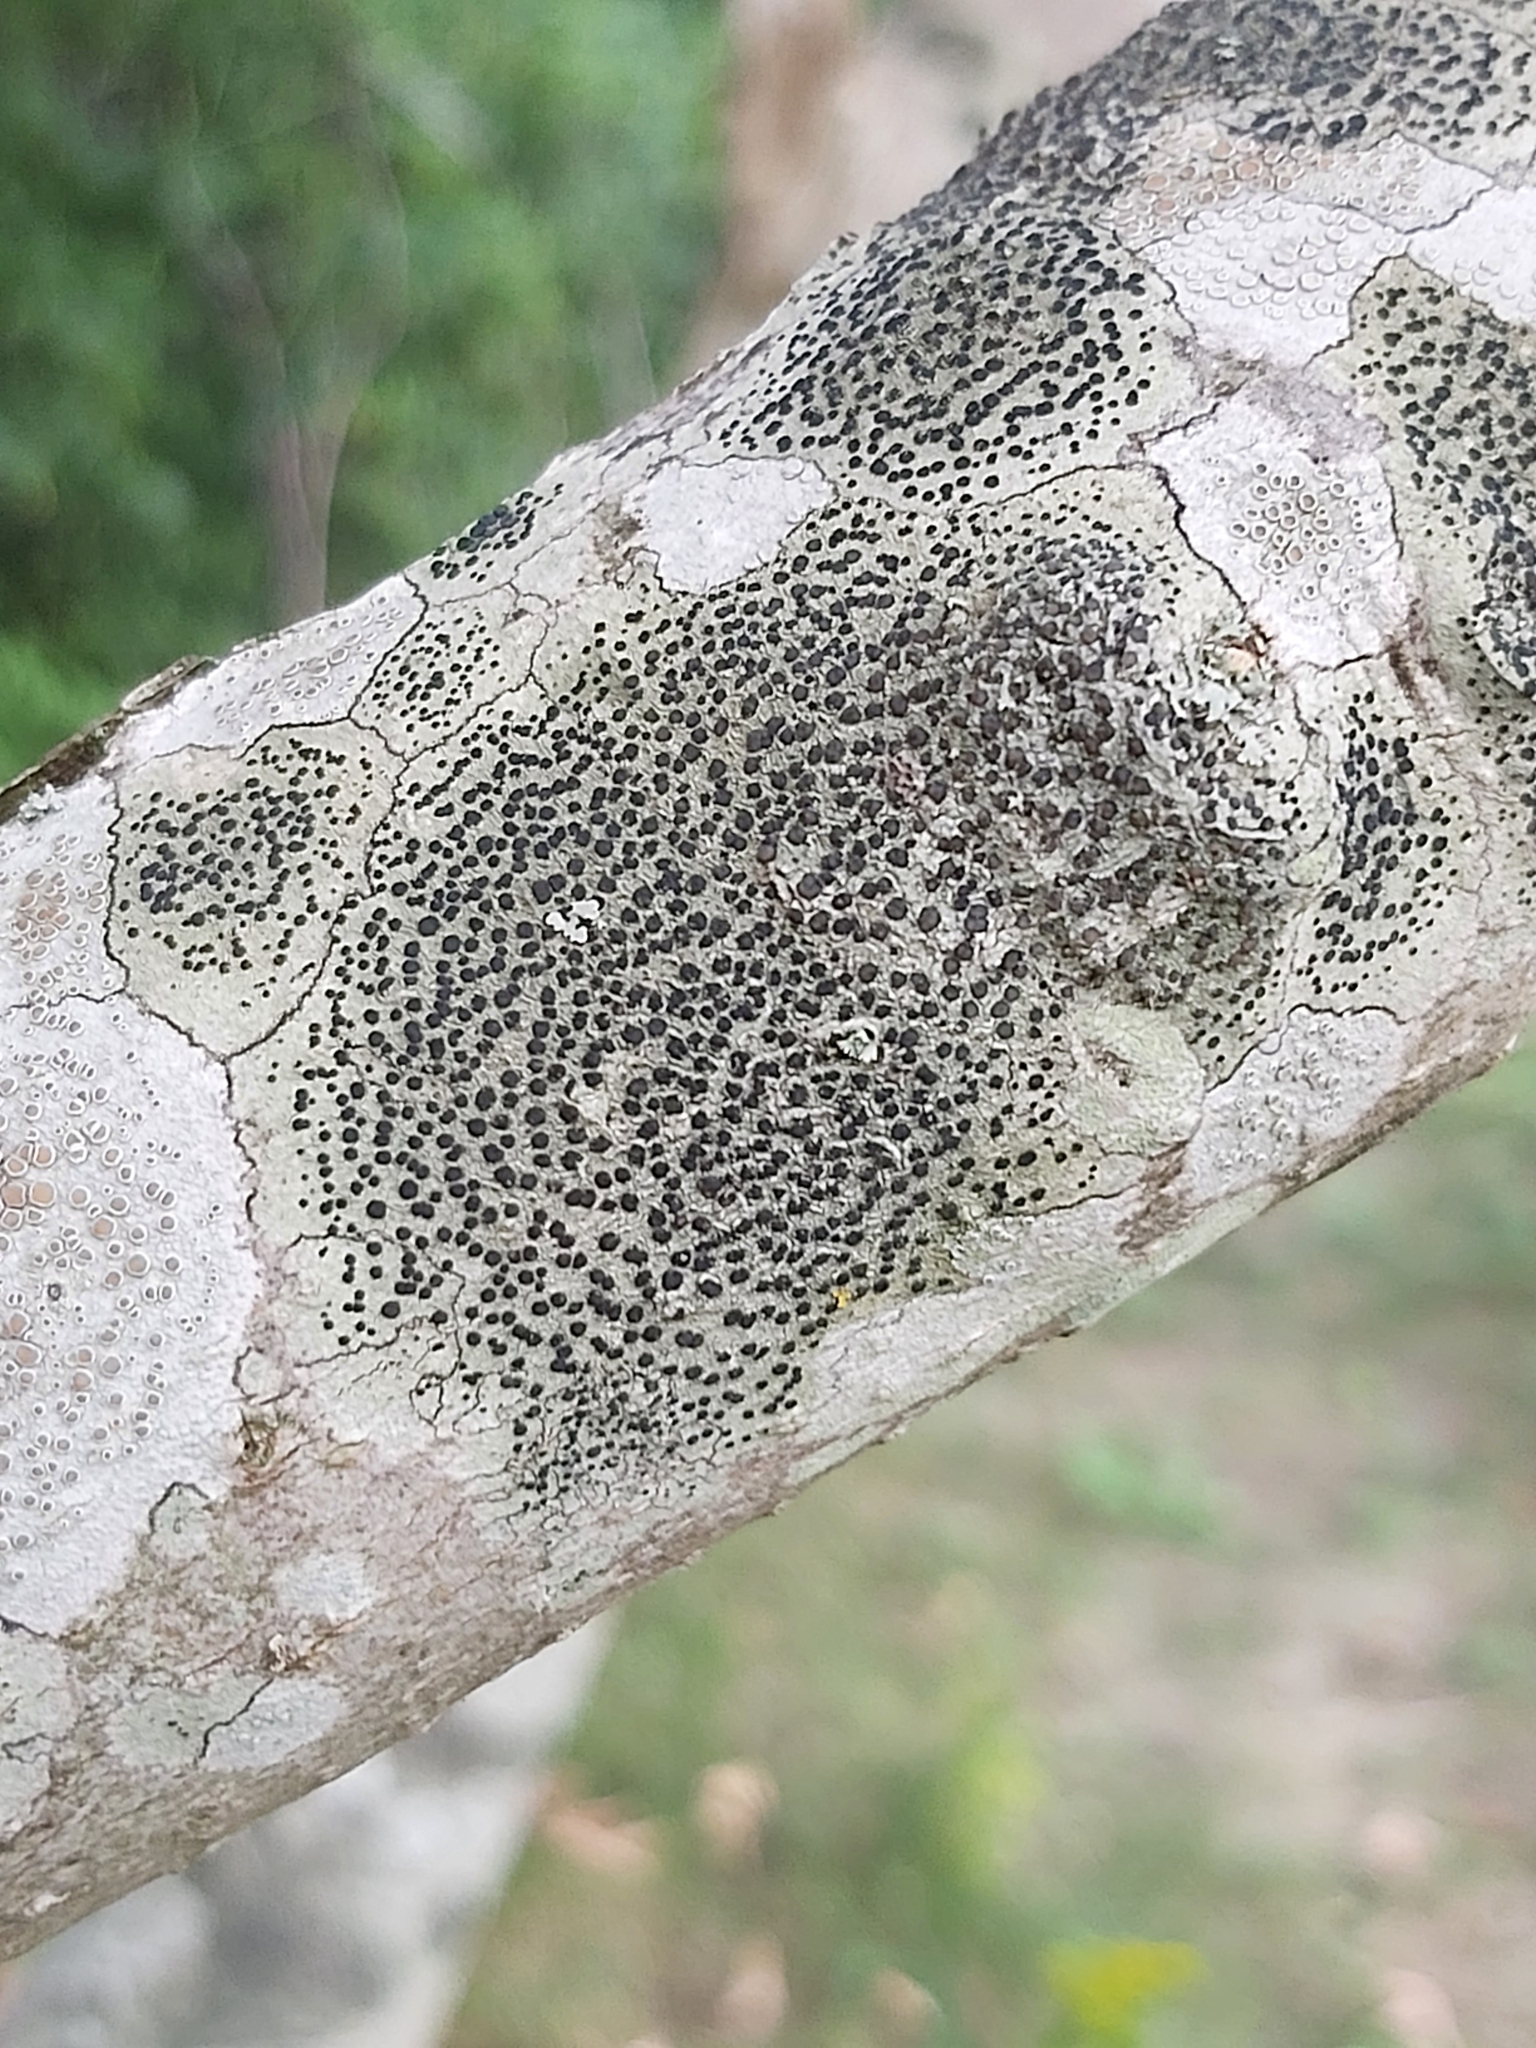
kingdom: Fungi
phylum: Ascomycota
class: Lecanoromycetes
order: Lecanorales
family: Lecanoraceae
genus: Lecidella
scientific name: Lecidella elaeochroma
